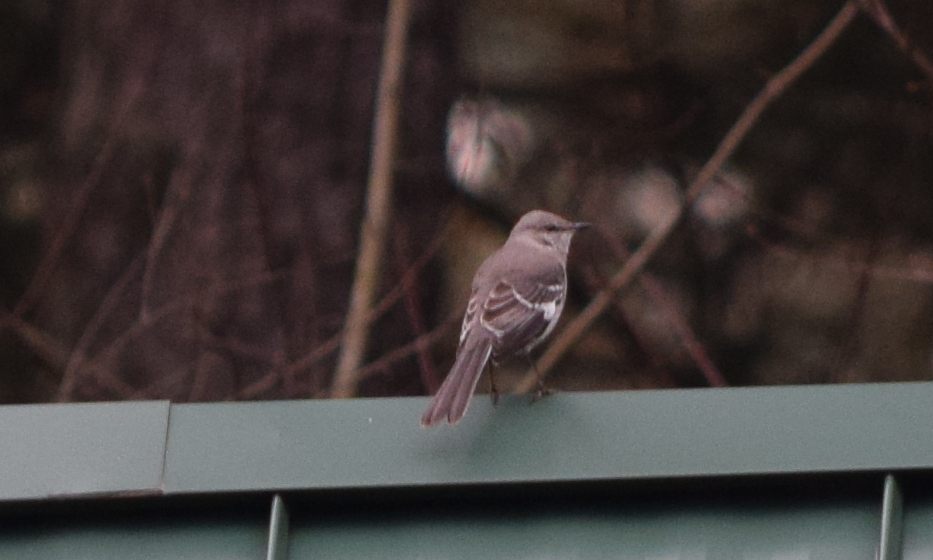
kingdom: Animalia
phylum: Chordata
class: Aves
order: Passeriformes
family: Mimidae
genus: Mimus
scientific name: Mimus polyglottos
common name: Northern mockingbird
